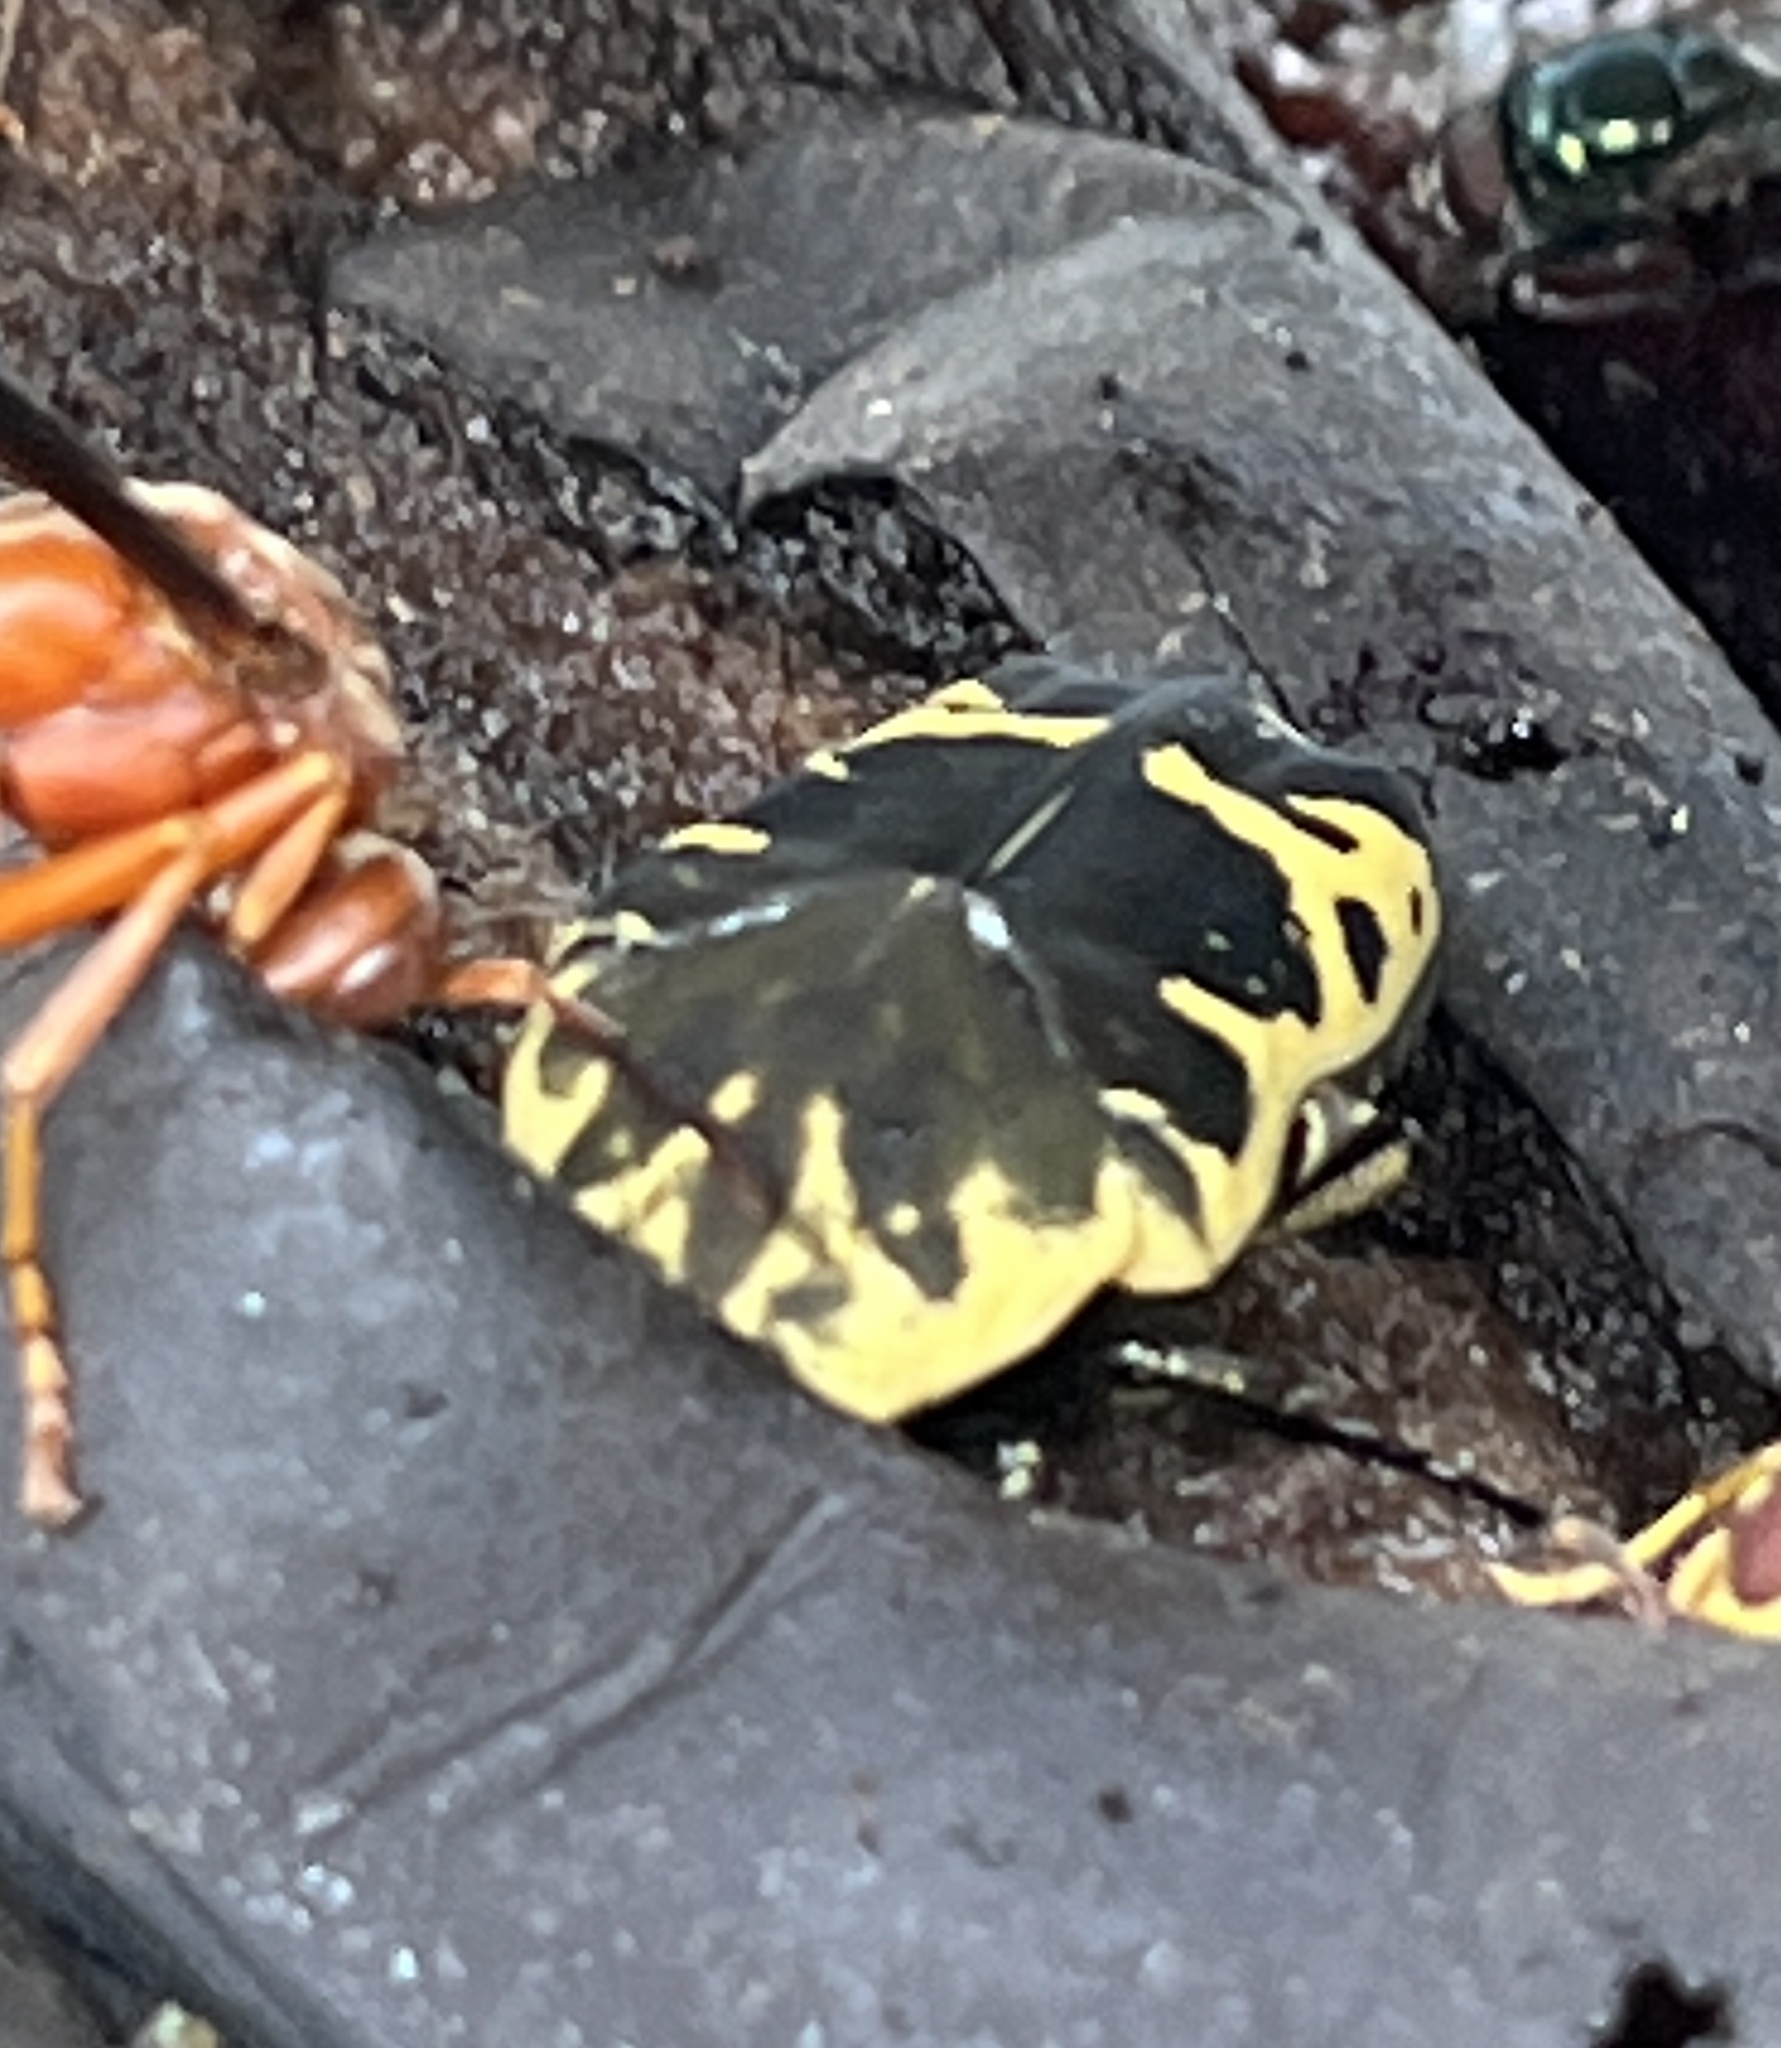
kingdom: Animalia
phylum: Arthropoda
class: Insecta
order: Coleoptera
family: Scarabaeidae
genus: Gymnetis
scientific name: Gymnetis thula
